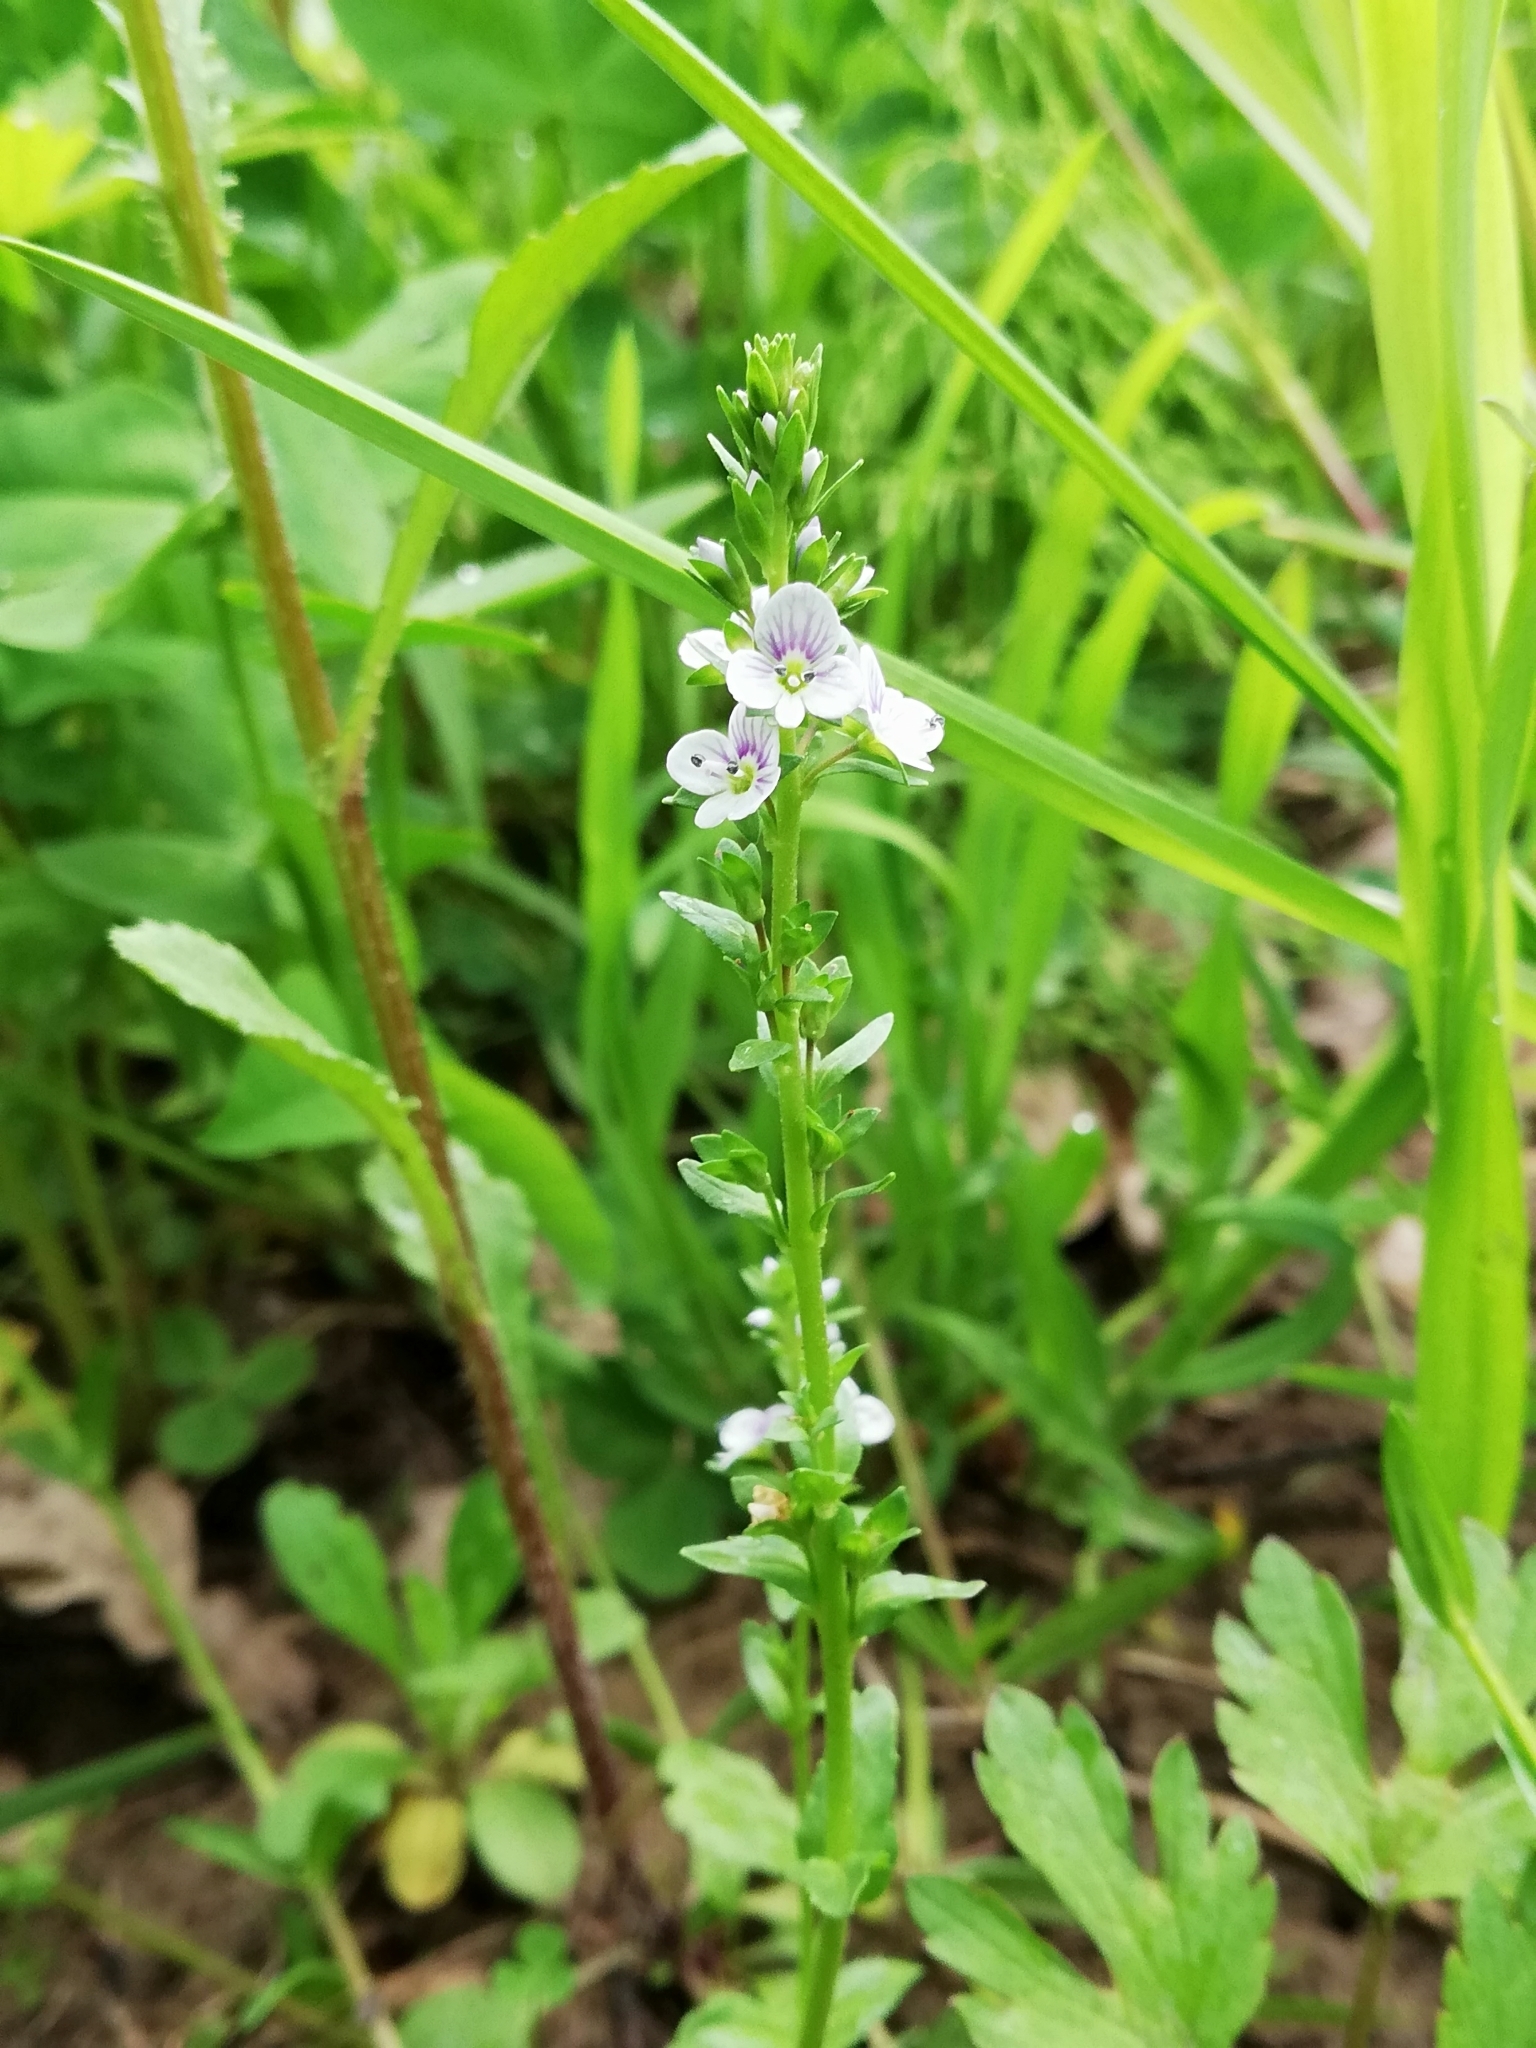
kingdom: Plantae
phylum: Tracheophyta
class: Magnoliopsida
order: Lamiales
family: Plantaginaceae
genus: Veronica
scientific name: Veronica serpyllifolia
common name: Thyme-leaved speedwell
